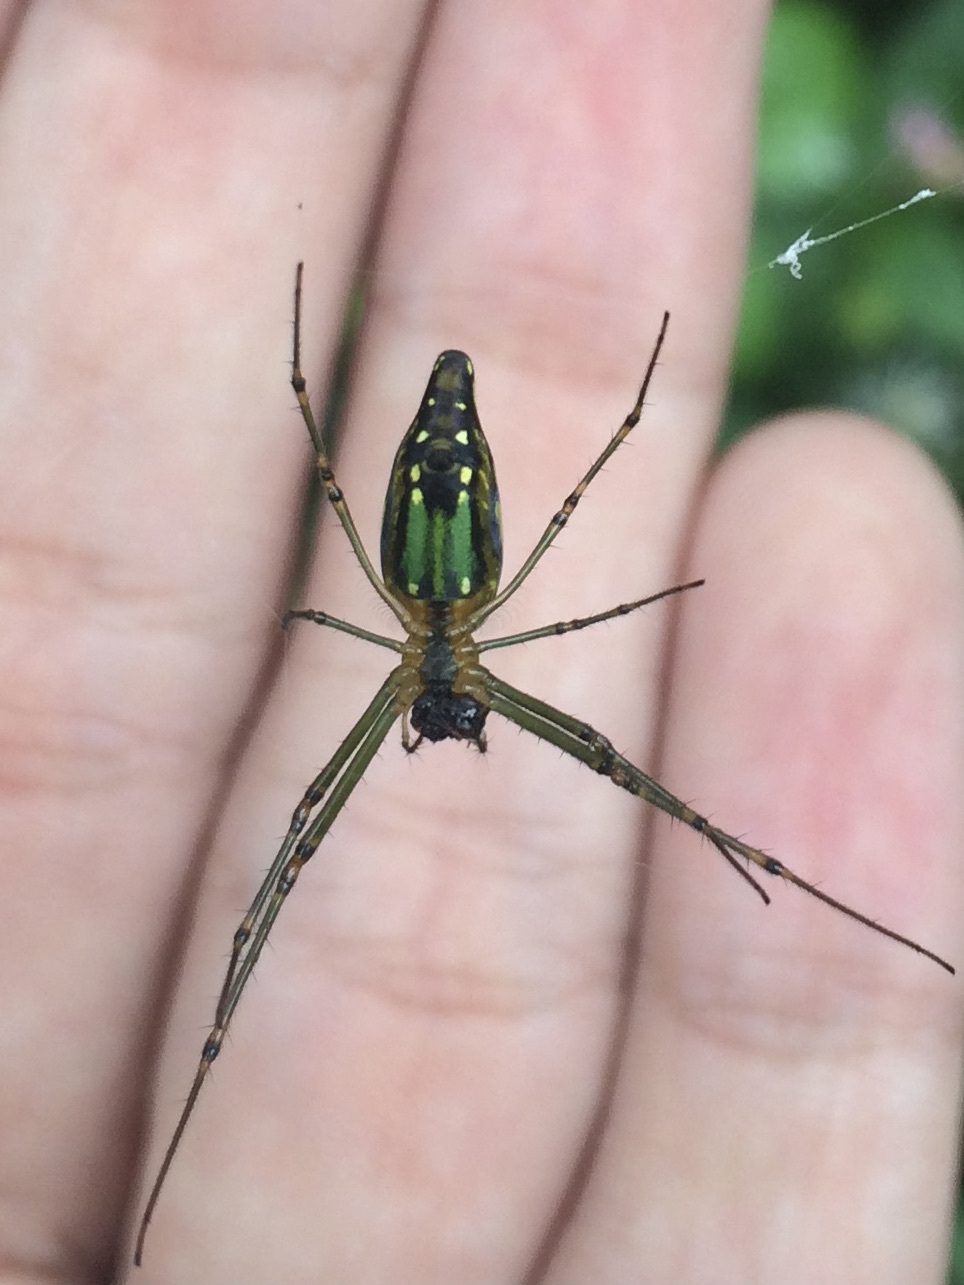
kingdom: Animalia
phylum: Arthropoda
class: Arachnida
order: Araneae
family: Tetragnathidae
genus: Leucauge
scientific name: Leucauge decorata
